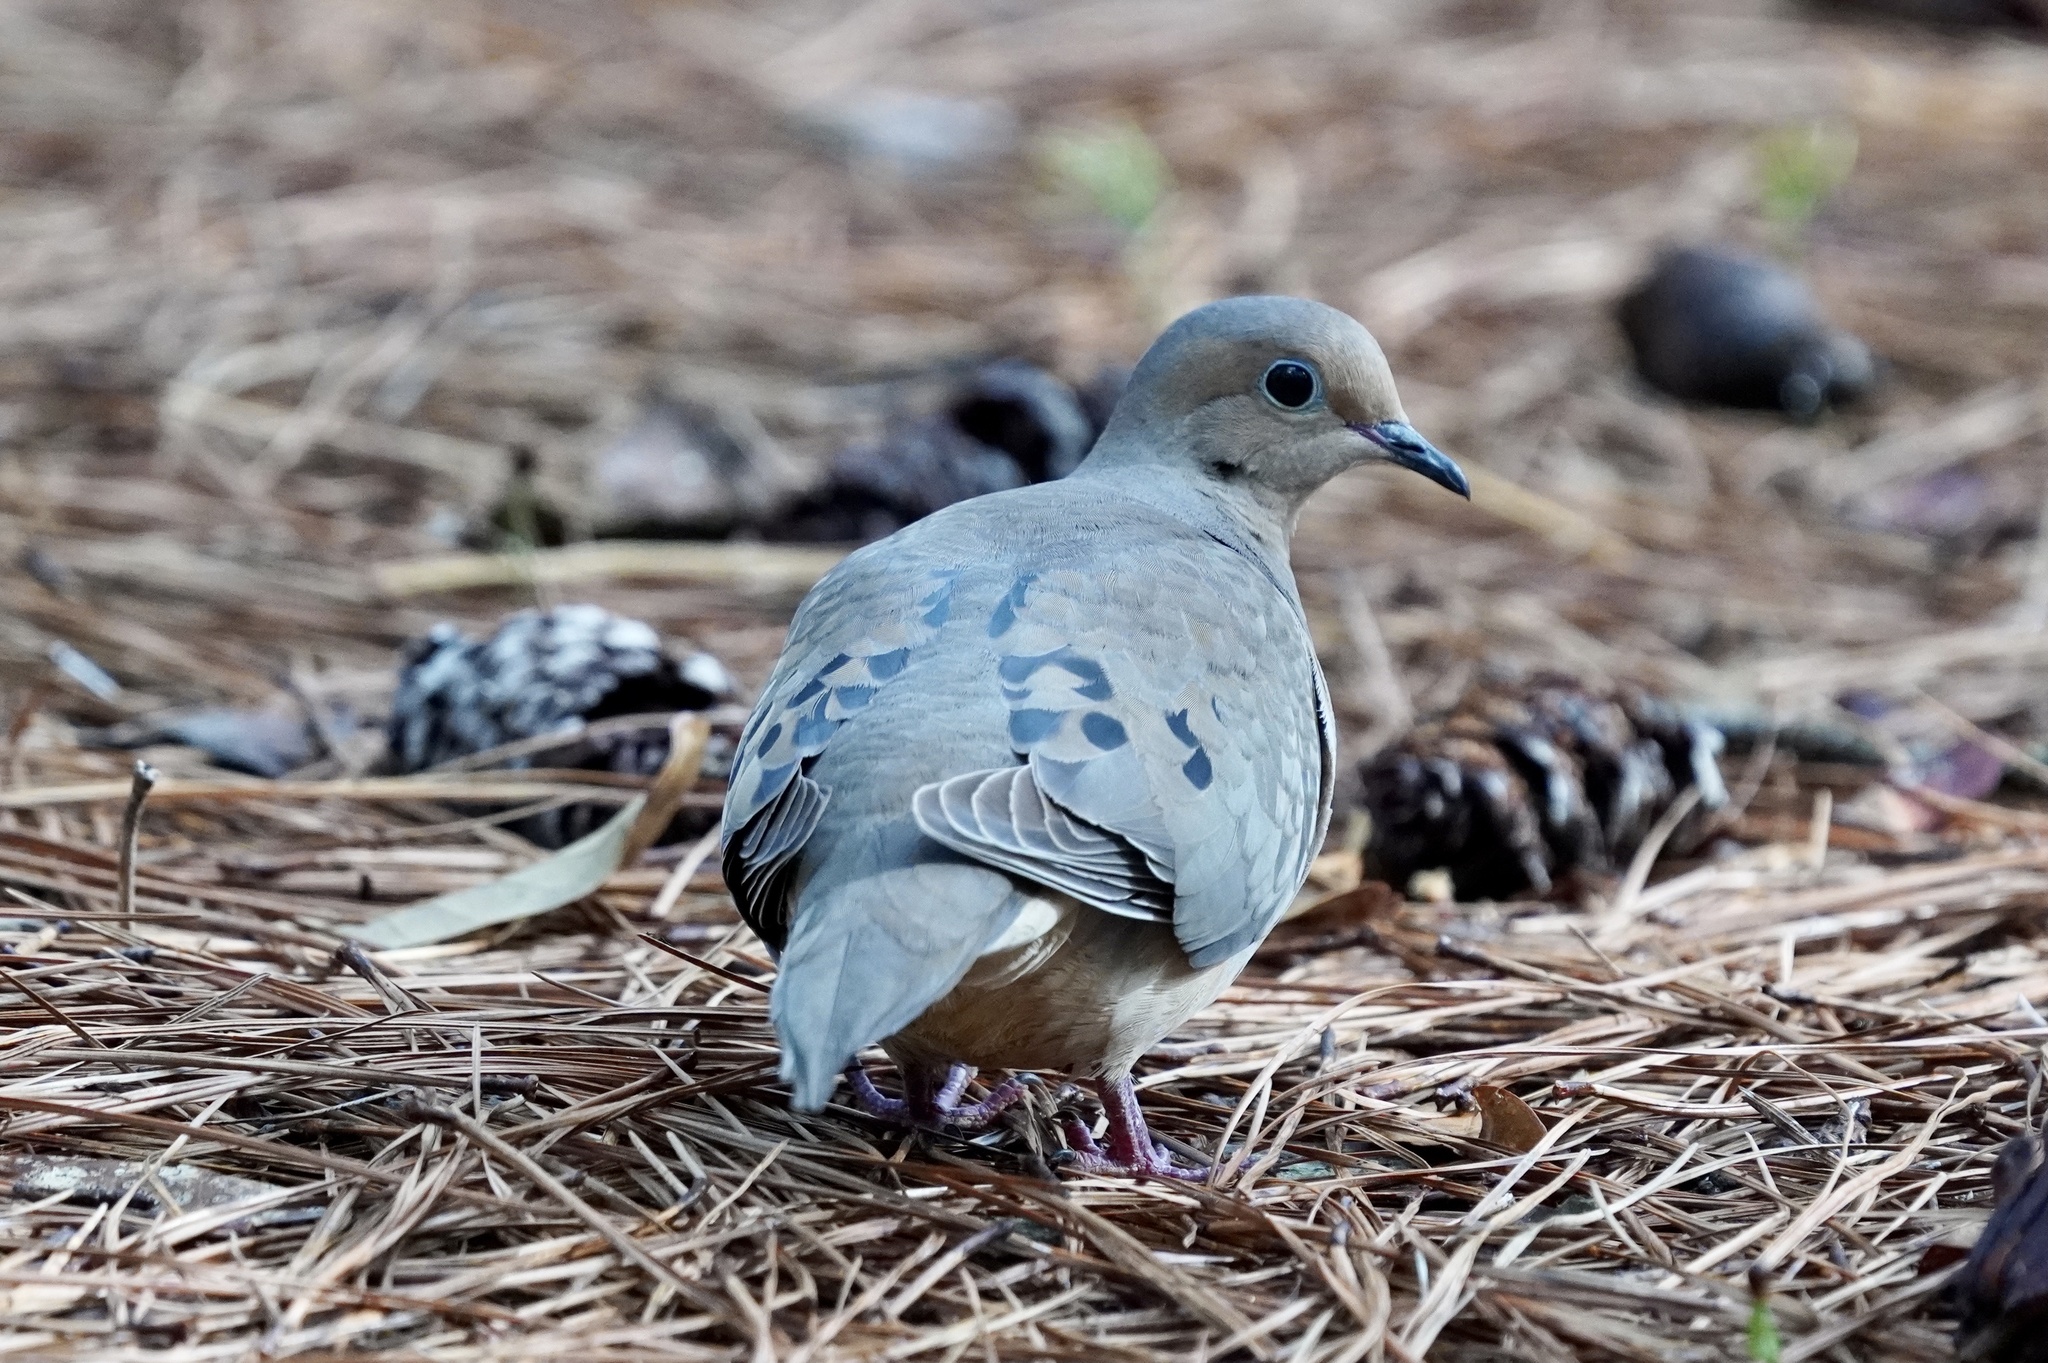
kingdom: Animalia
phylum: Chordata
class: Aves
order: Columbiformes
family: Columbidae
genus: Zenaida
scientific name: Zenaida macroura
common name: Mourning dove
